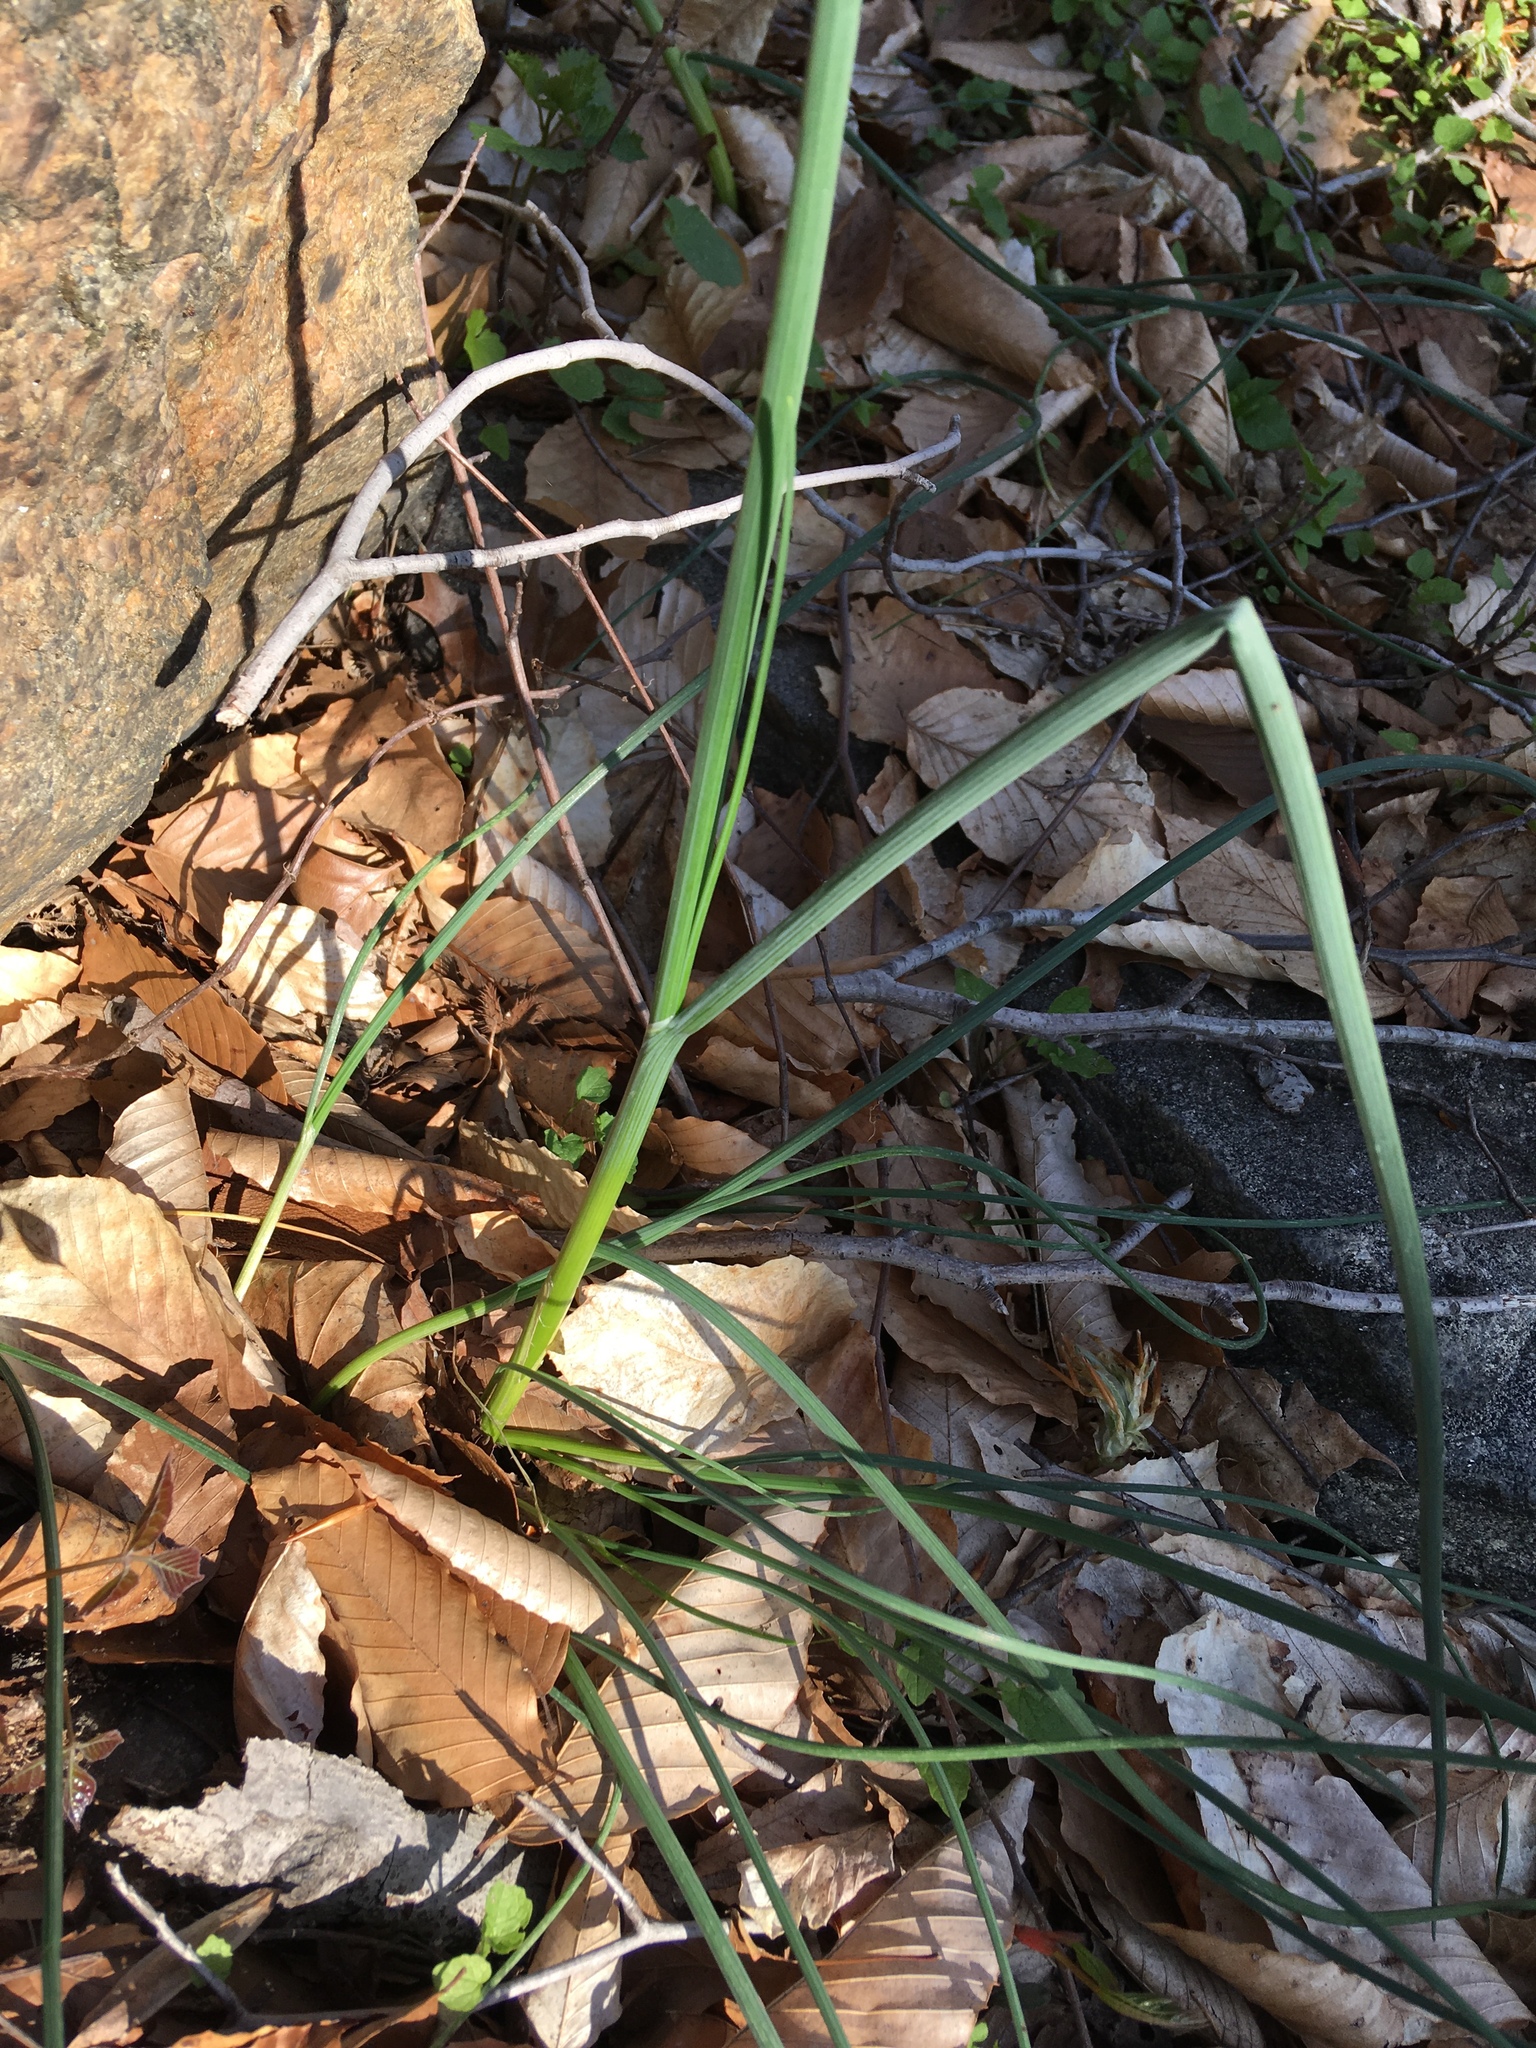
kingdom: Plantae
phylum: Tracheophyta
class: Liliopsida
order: Asparagales
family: Amaryllidaceae
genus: Allium
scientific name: Allium vineale
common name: Crow garlic
